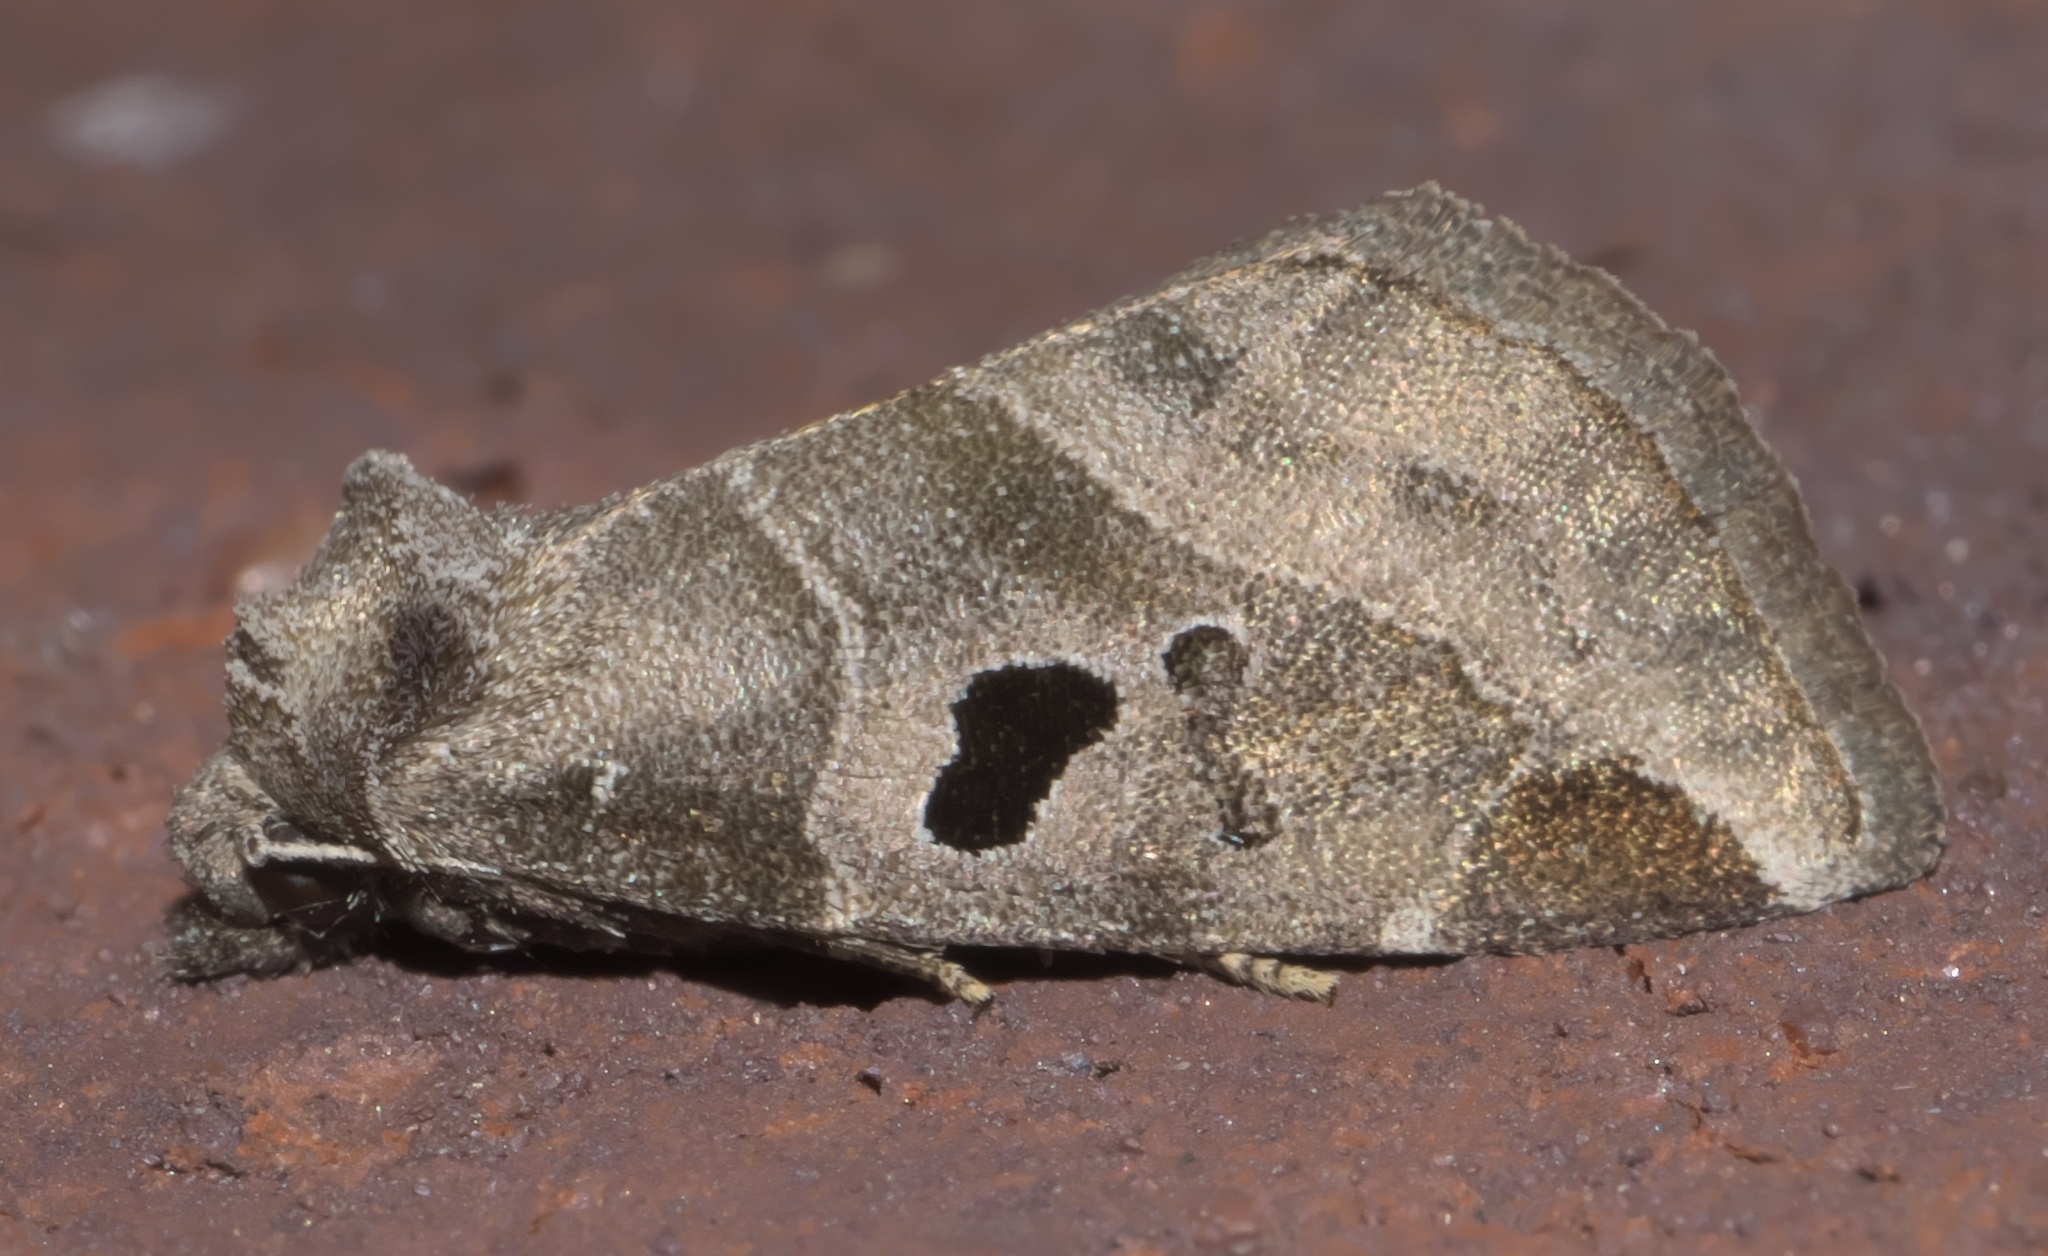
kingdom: Animalia
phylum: Arthropoda
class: Insecta
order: Lepidoptera
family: Noctuidae
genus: Plagiomimicus
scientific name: Plagiomimicus pityochromus
